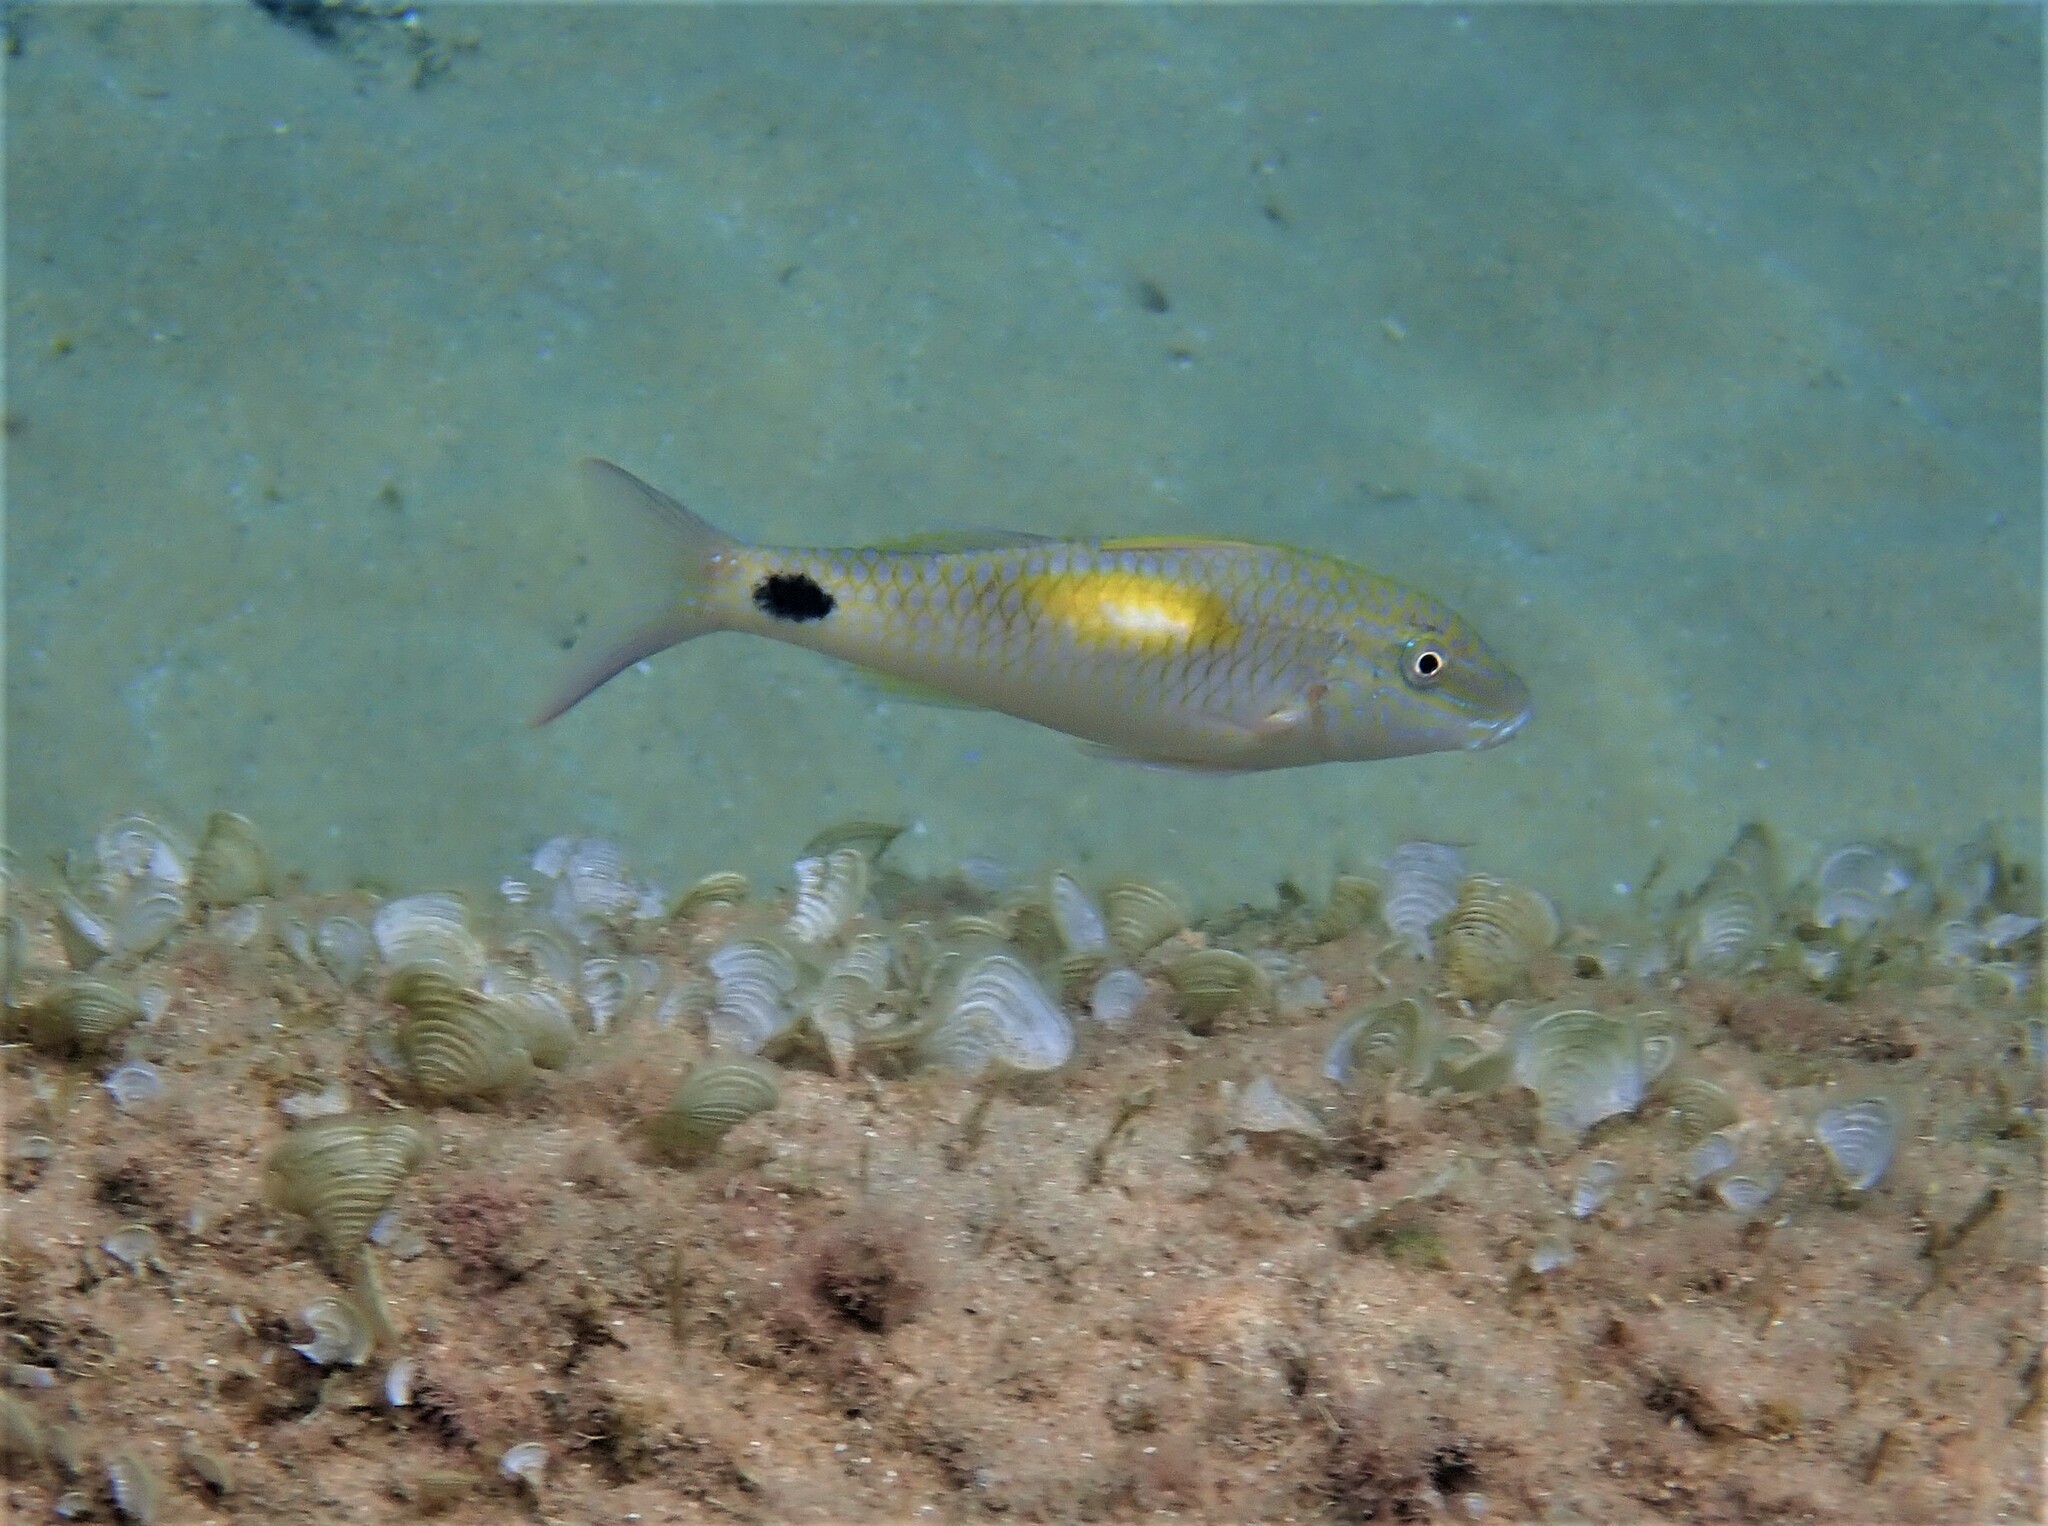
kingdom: Animalia
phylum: Chordata
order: Perciformes
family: Mullidae
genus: Parupeneus
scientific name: Parupeneus indicus
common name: Indian goatfish
